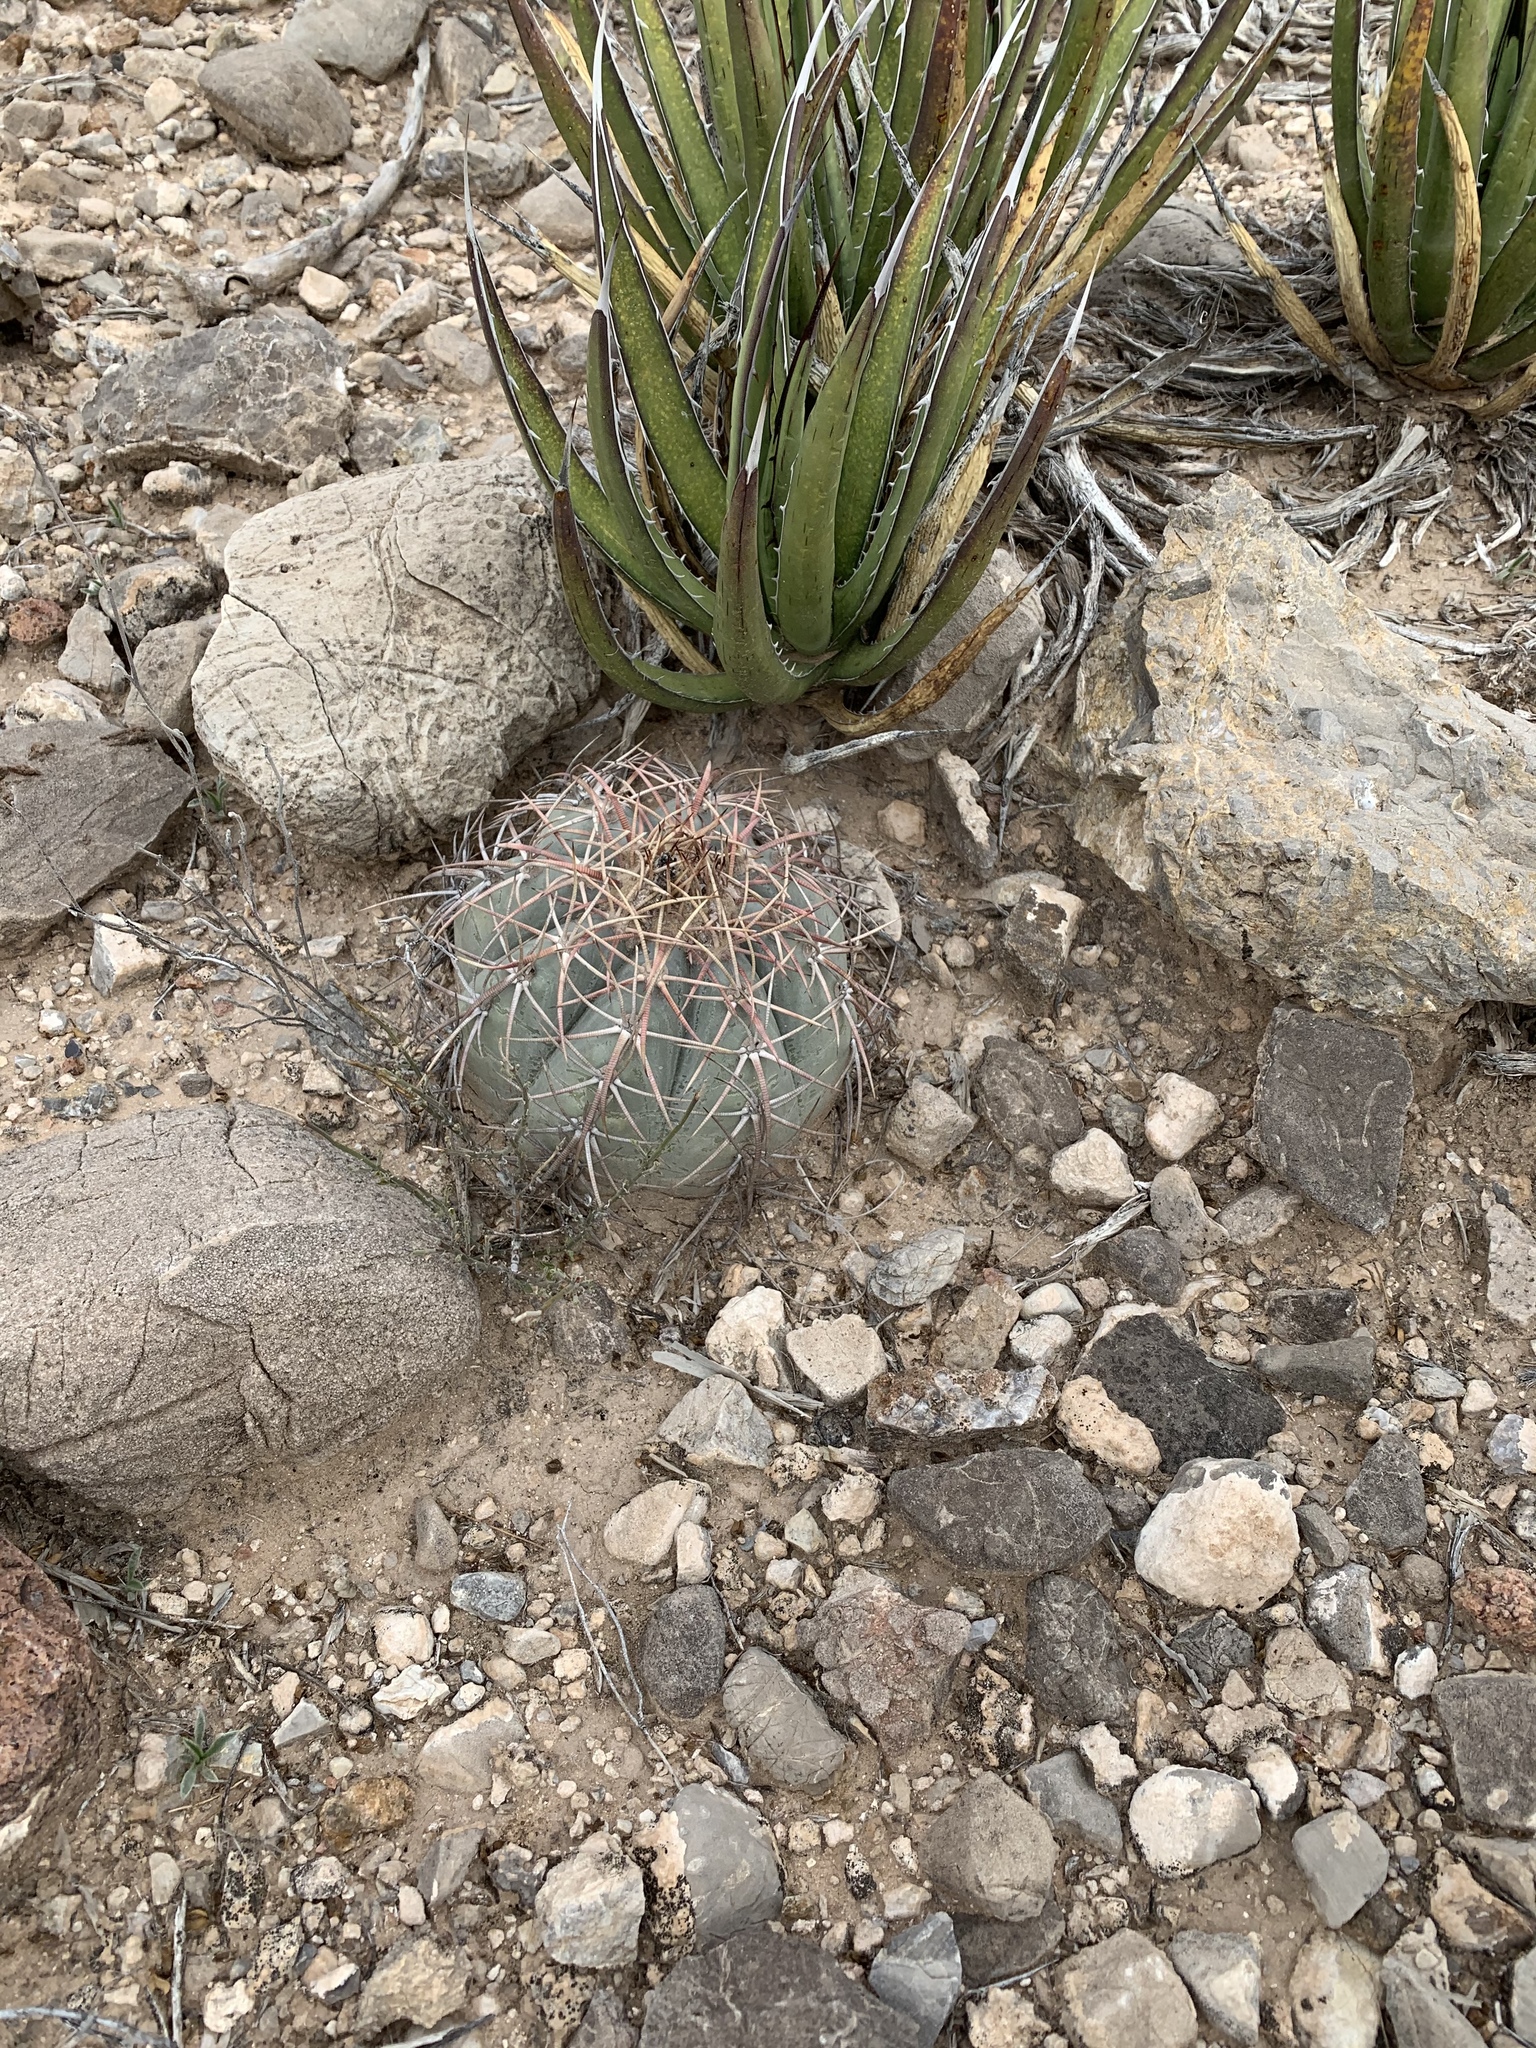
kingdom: Plantae
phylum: Tracheophyta
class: Magnoliopsida
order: Caryophyllales
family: Cactaceae
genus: Echinocactus
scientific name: Echinocactus horizonthalonius
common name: Devilshead
